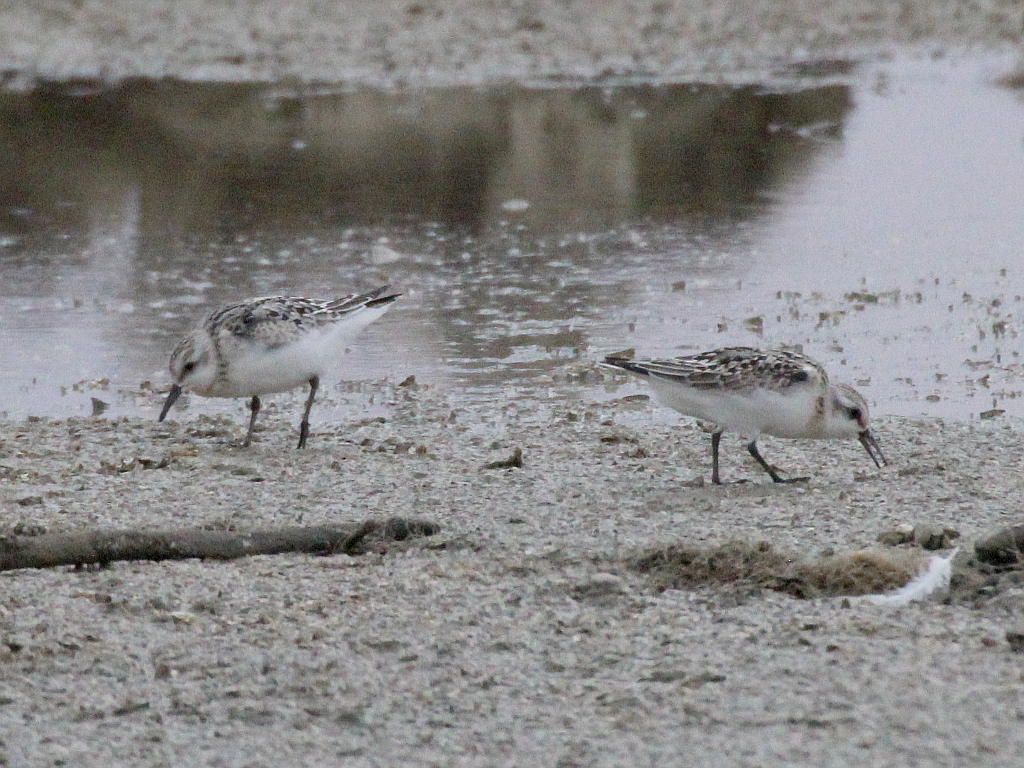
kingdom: Animalia
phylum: Chordata
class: Aves
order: Charadriiformes
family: Scolopacidae
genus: Calidris
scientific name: Calidris alba
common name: Sanderling
